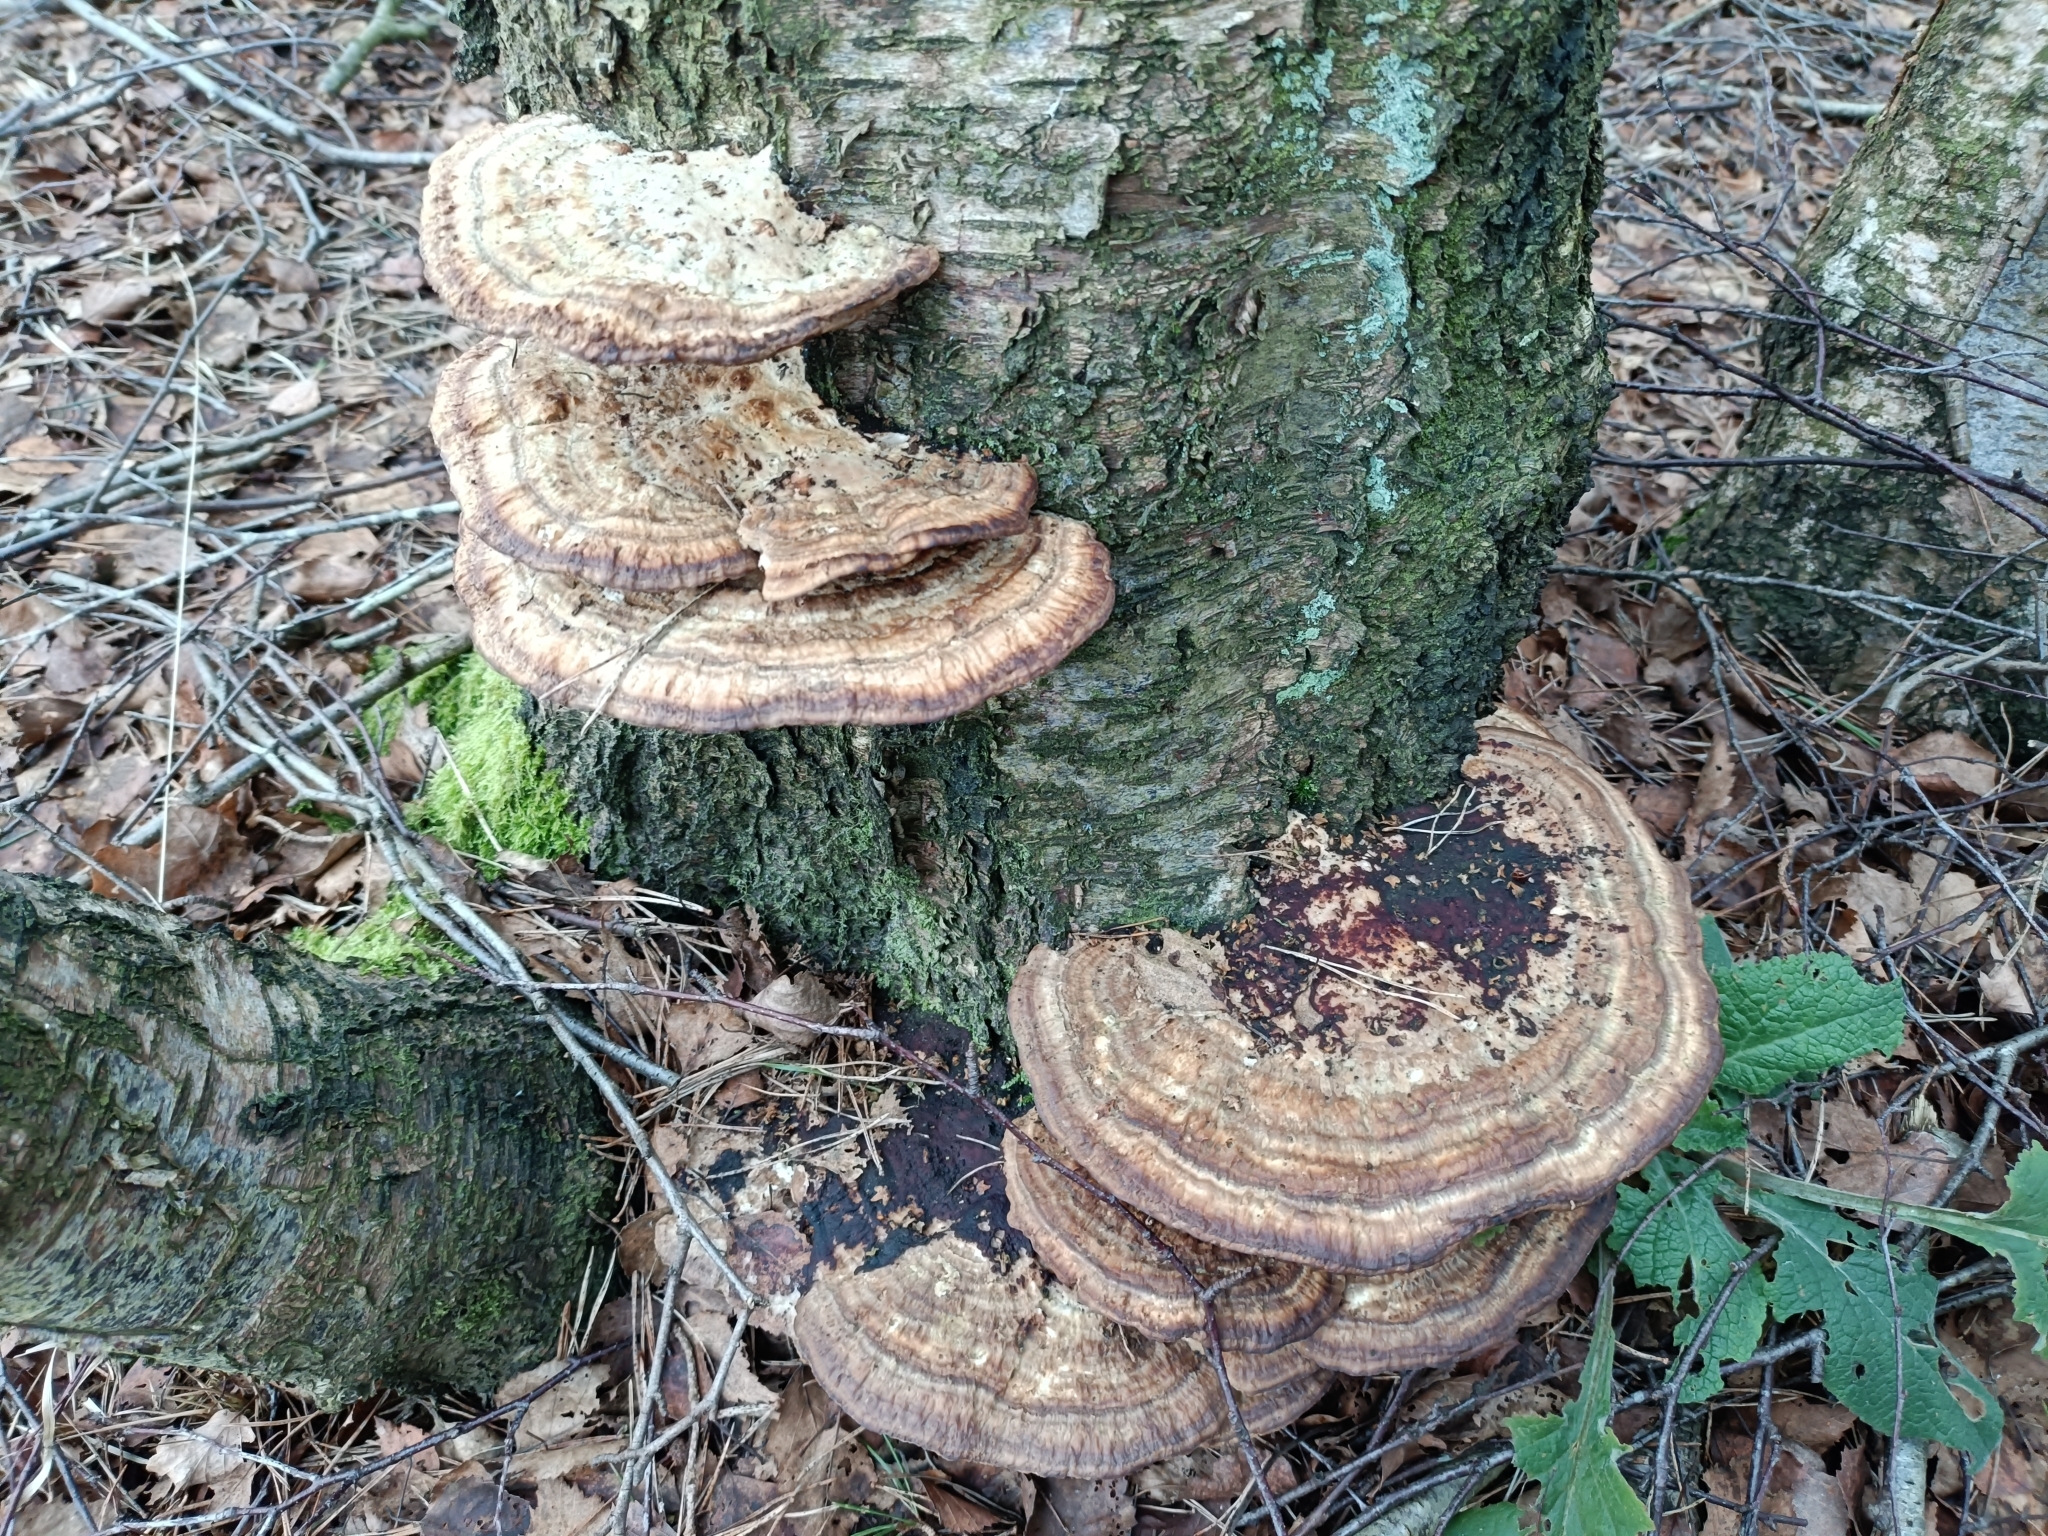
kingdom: Fungi
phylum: Basidiomycota
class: Agaricomycetes
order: Polyporales
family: Polyporaceae
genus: Daedaleopsis
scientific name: Daedaleopsis confragosa
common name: Blushing bracket
